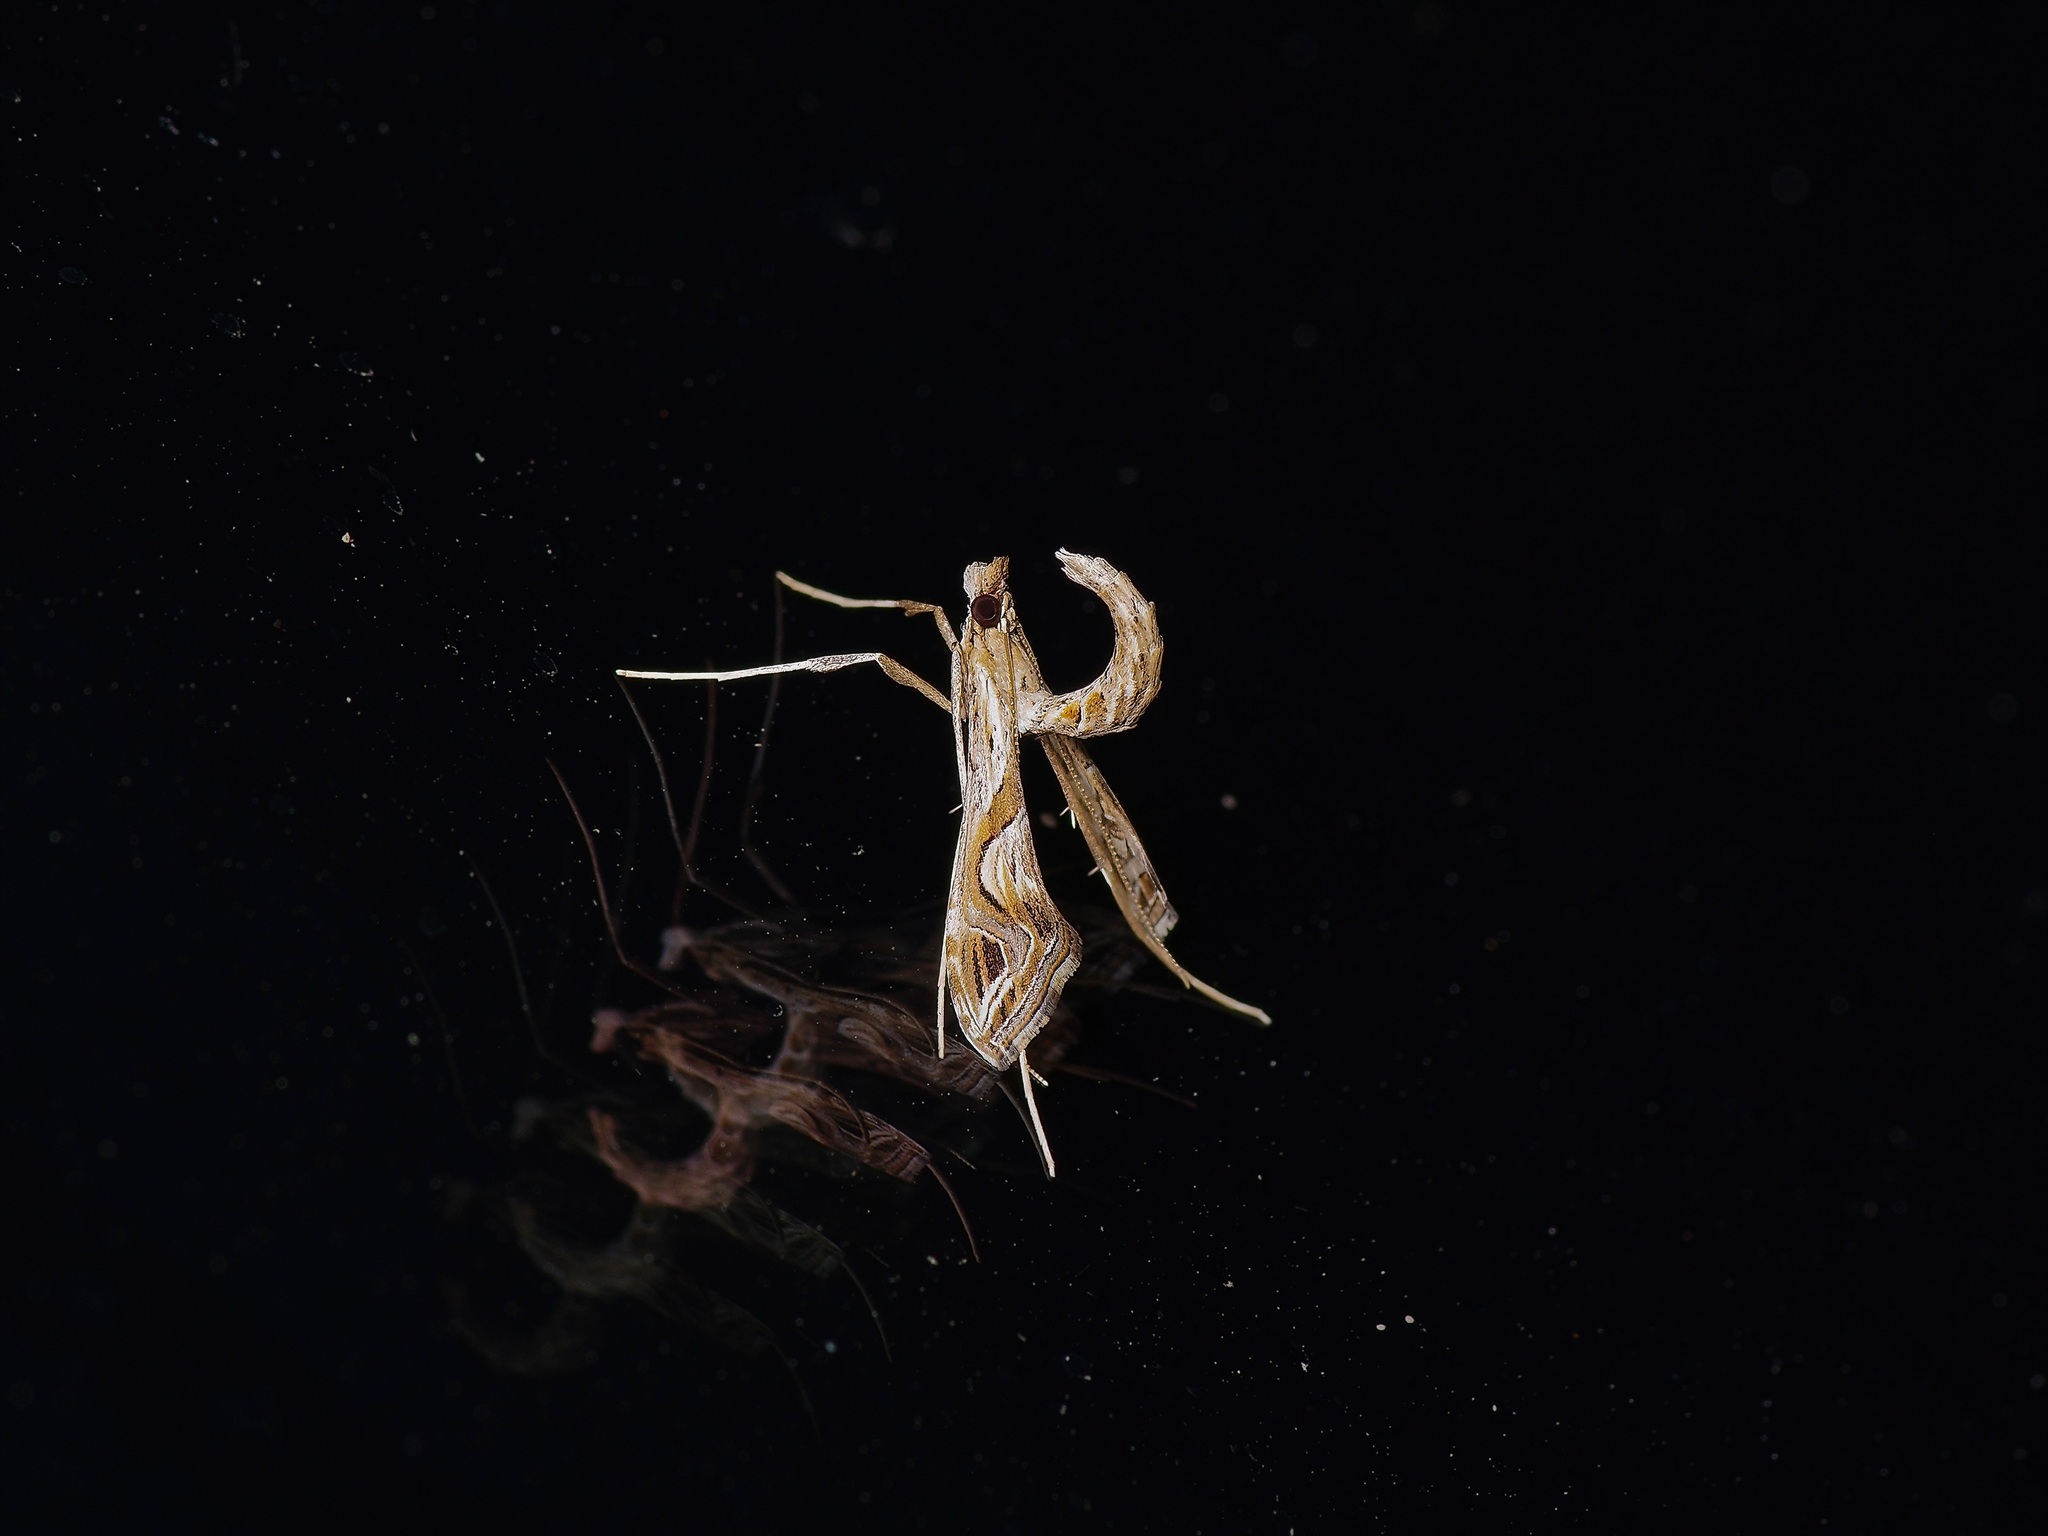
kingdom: Animalia
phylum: Arthropoda
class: Insecta
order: Lepidoptera
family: Crambidae
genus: Lineodes
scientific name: Lineodes integra
